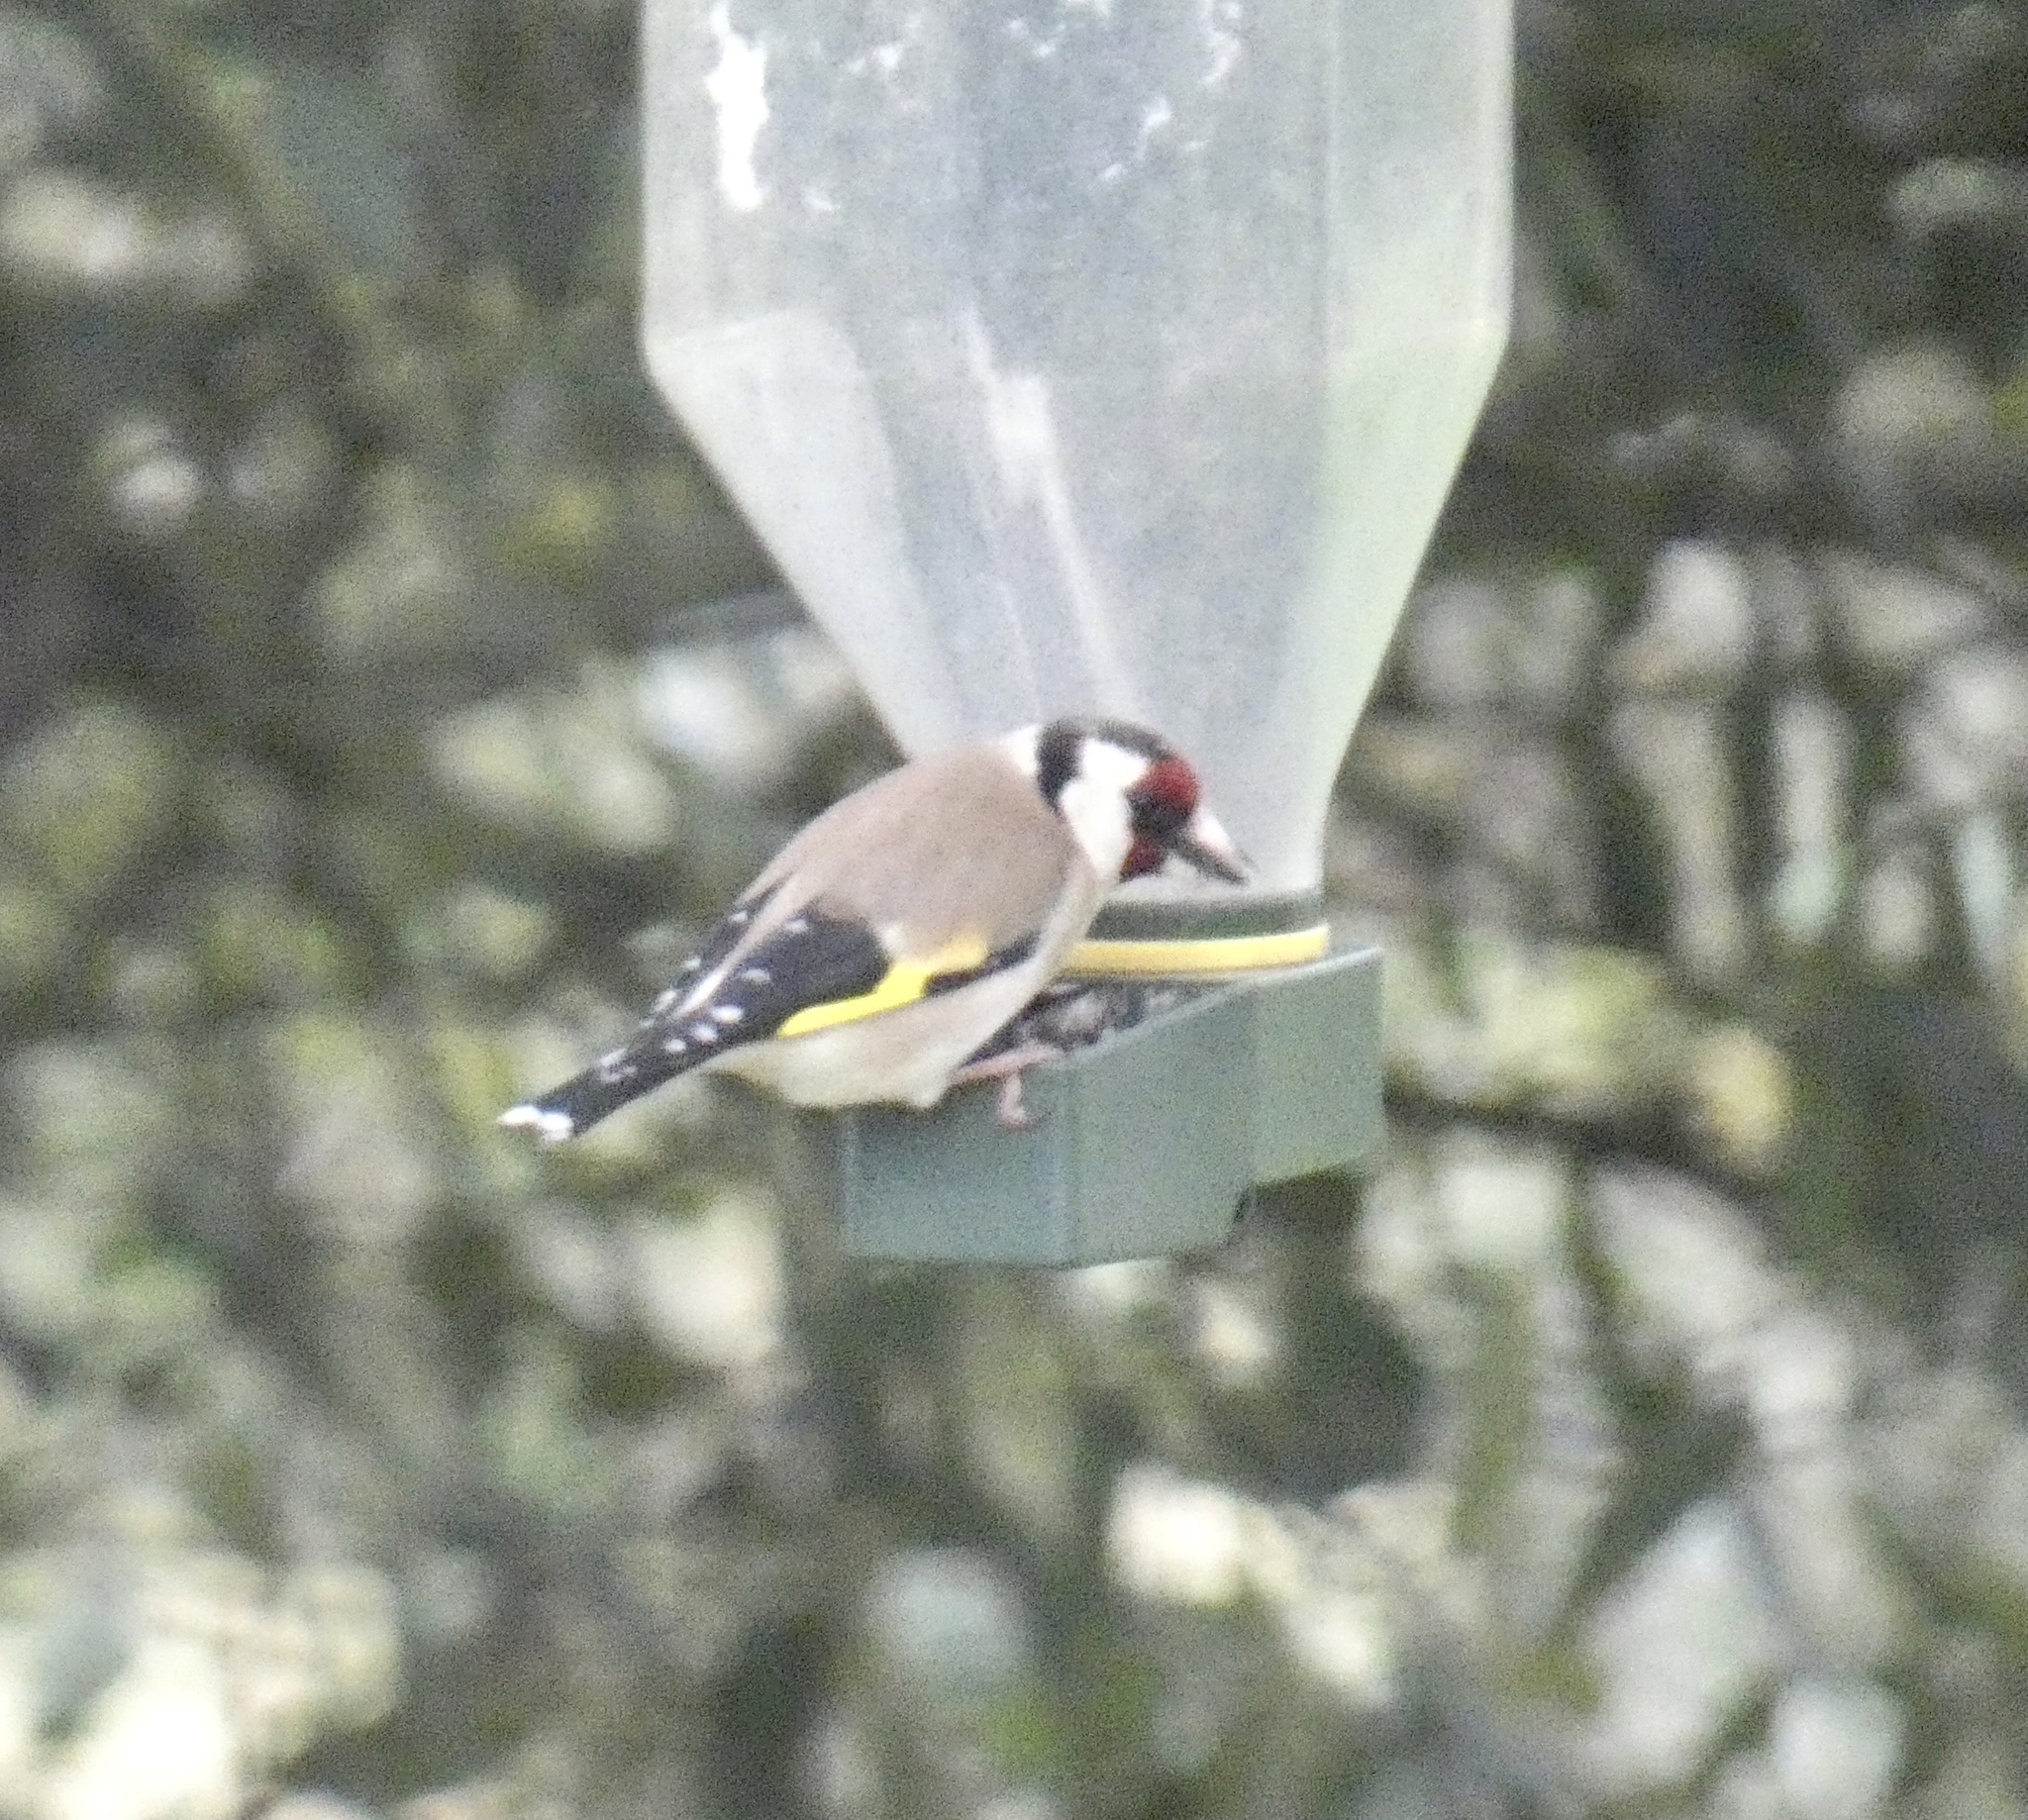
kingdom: Animalia
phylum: Chordata
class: Aves
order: Passeriformes
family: Fringillidae
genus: Carduelis
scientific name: Carduelis carduelis
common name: European goldfinch
